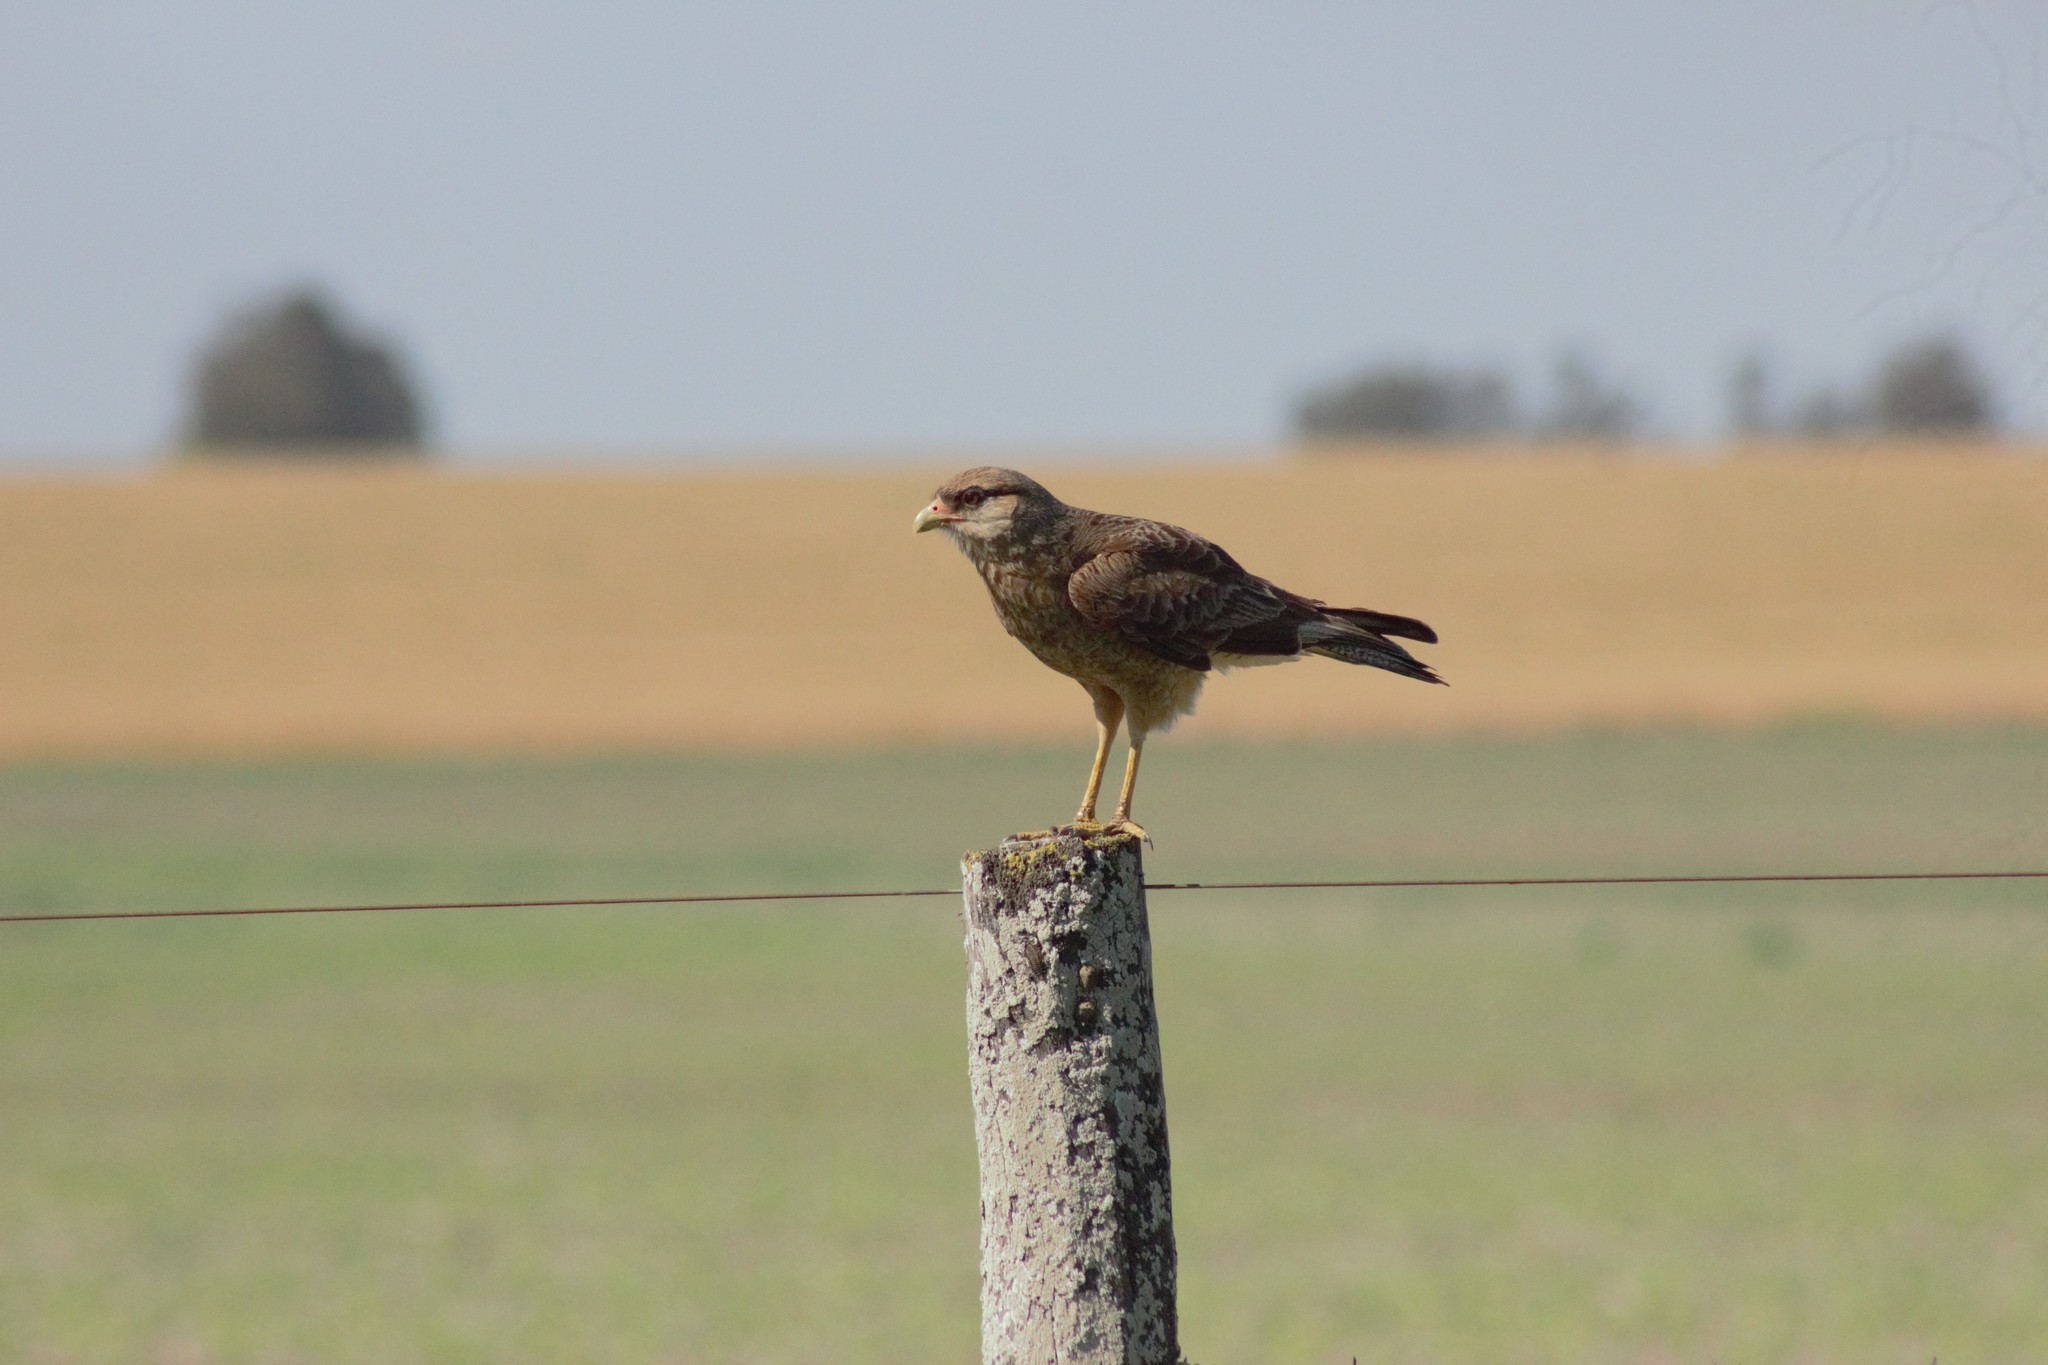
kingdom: Animalia
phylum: Chordata
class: Aves
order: Falconiformes
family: Falconidae
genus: Daptrius
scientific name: Daptrius
